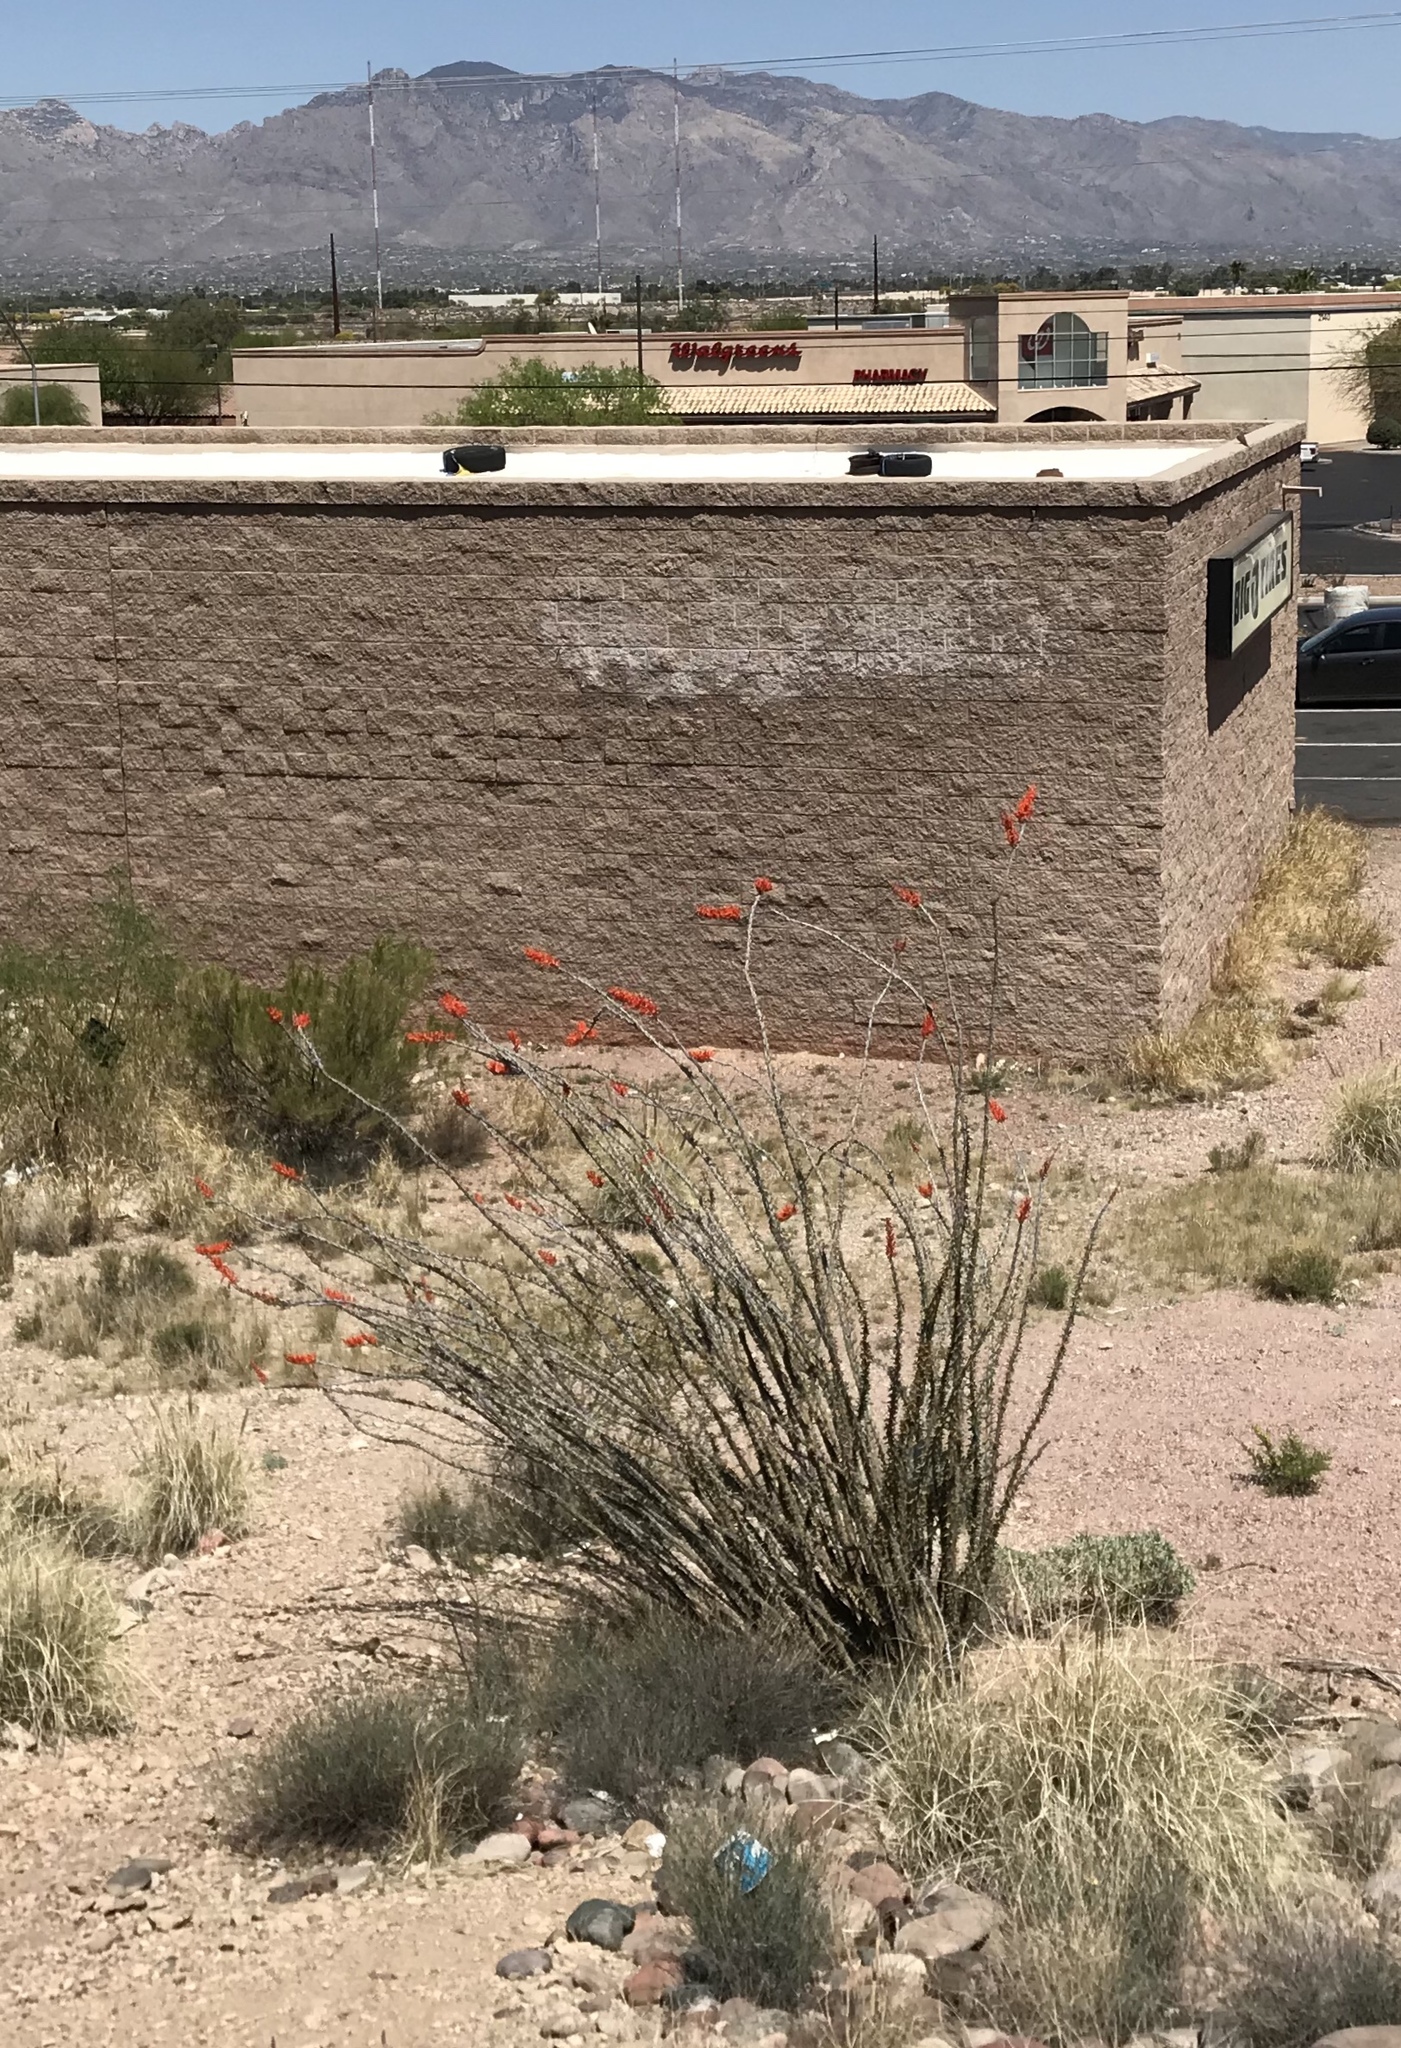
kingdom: Plantae
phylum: Tracheophyta
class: Magnoliopsida
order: Ericales
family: Fouquieriaceae
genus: Fouquieria
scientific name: Fouquieria splendens
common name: Vine-cactus
